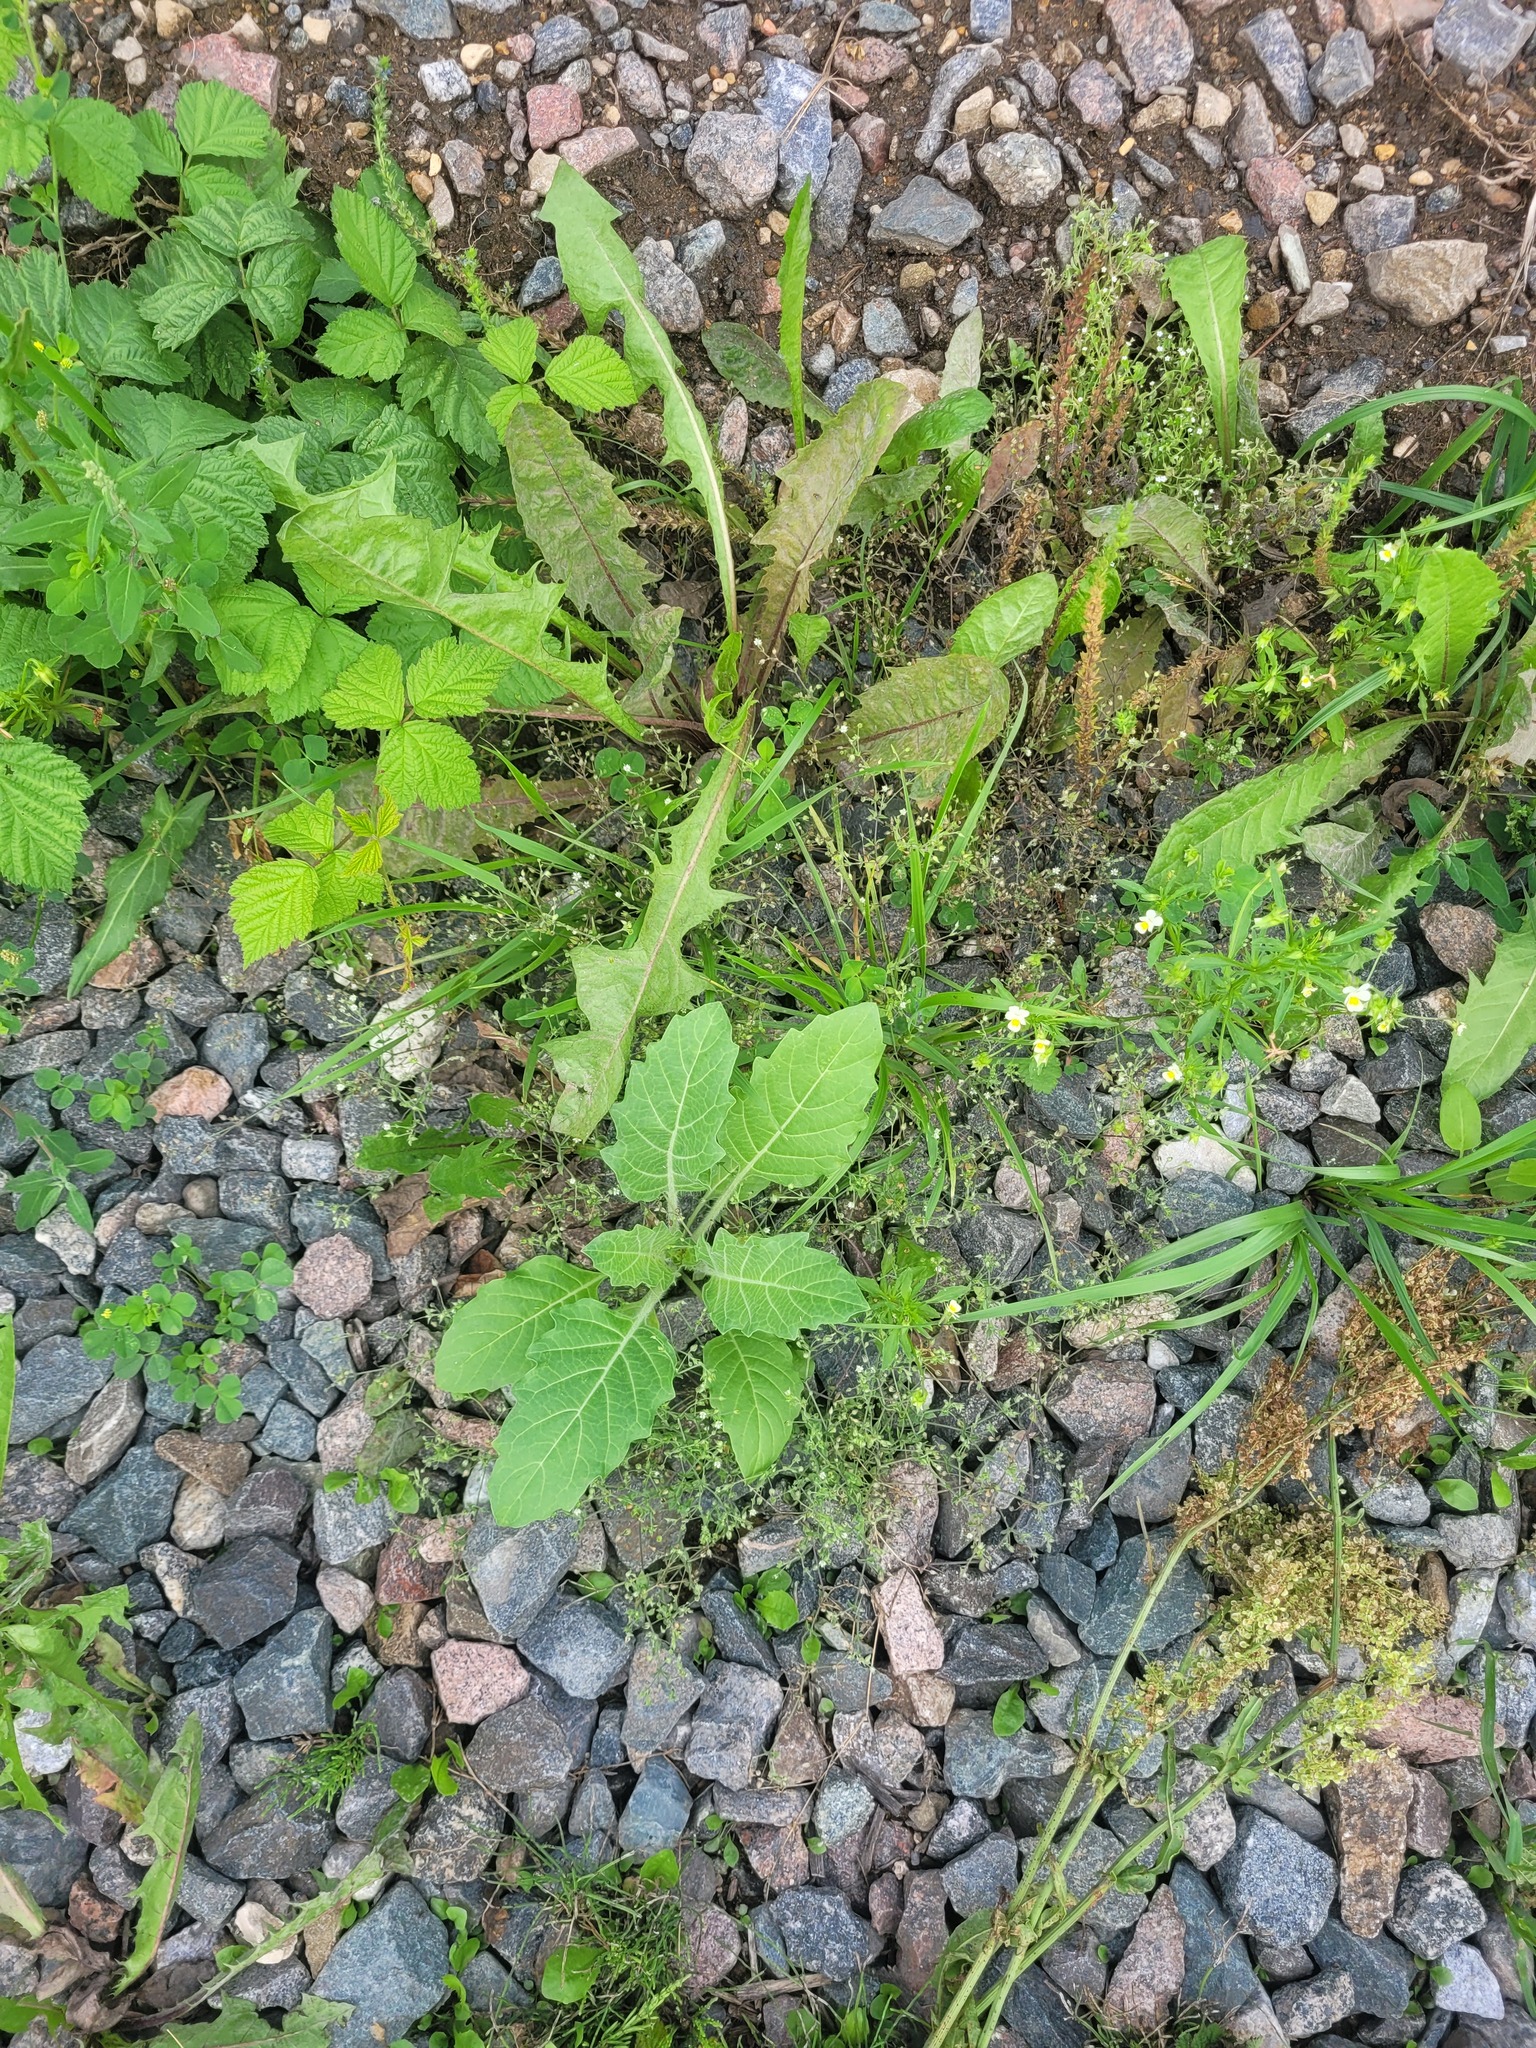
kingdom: Plantae
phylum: Tracheophyta
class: Magnoliopsida
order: Solanales
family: Solanaceae
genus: Hyoscyamus
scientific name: Hyoscyamus niger
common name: Henbane
